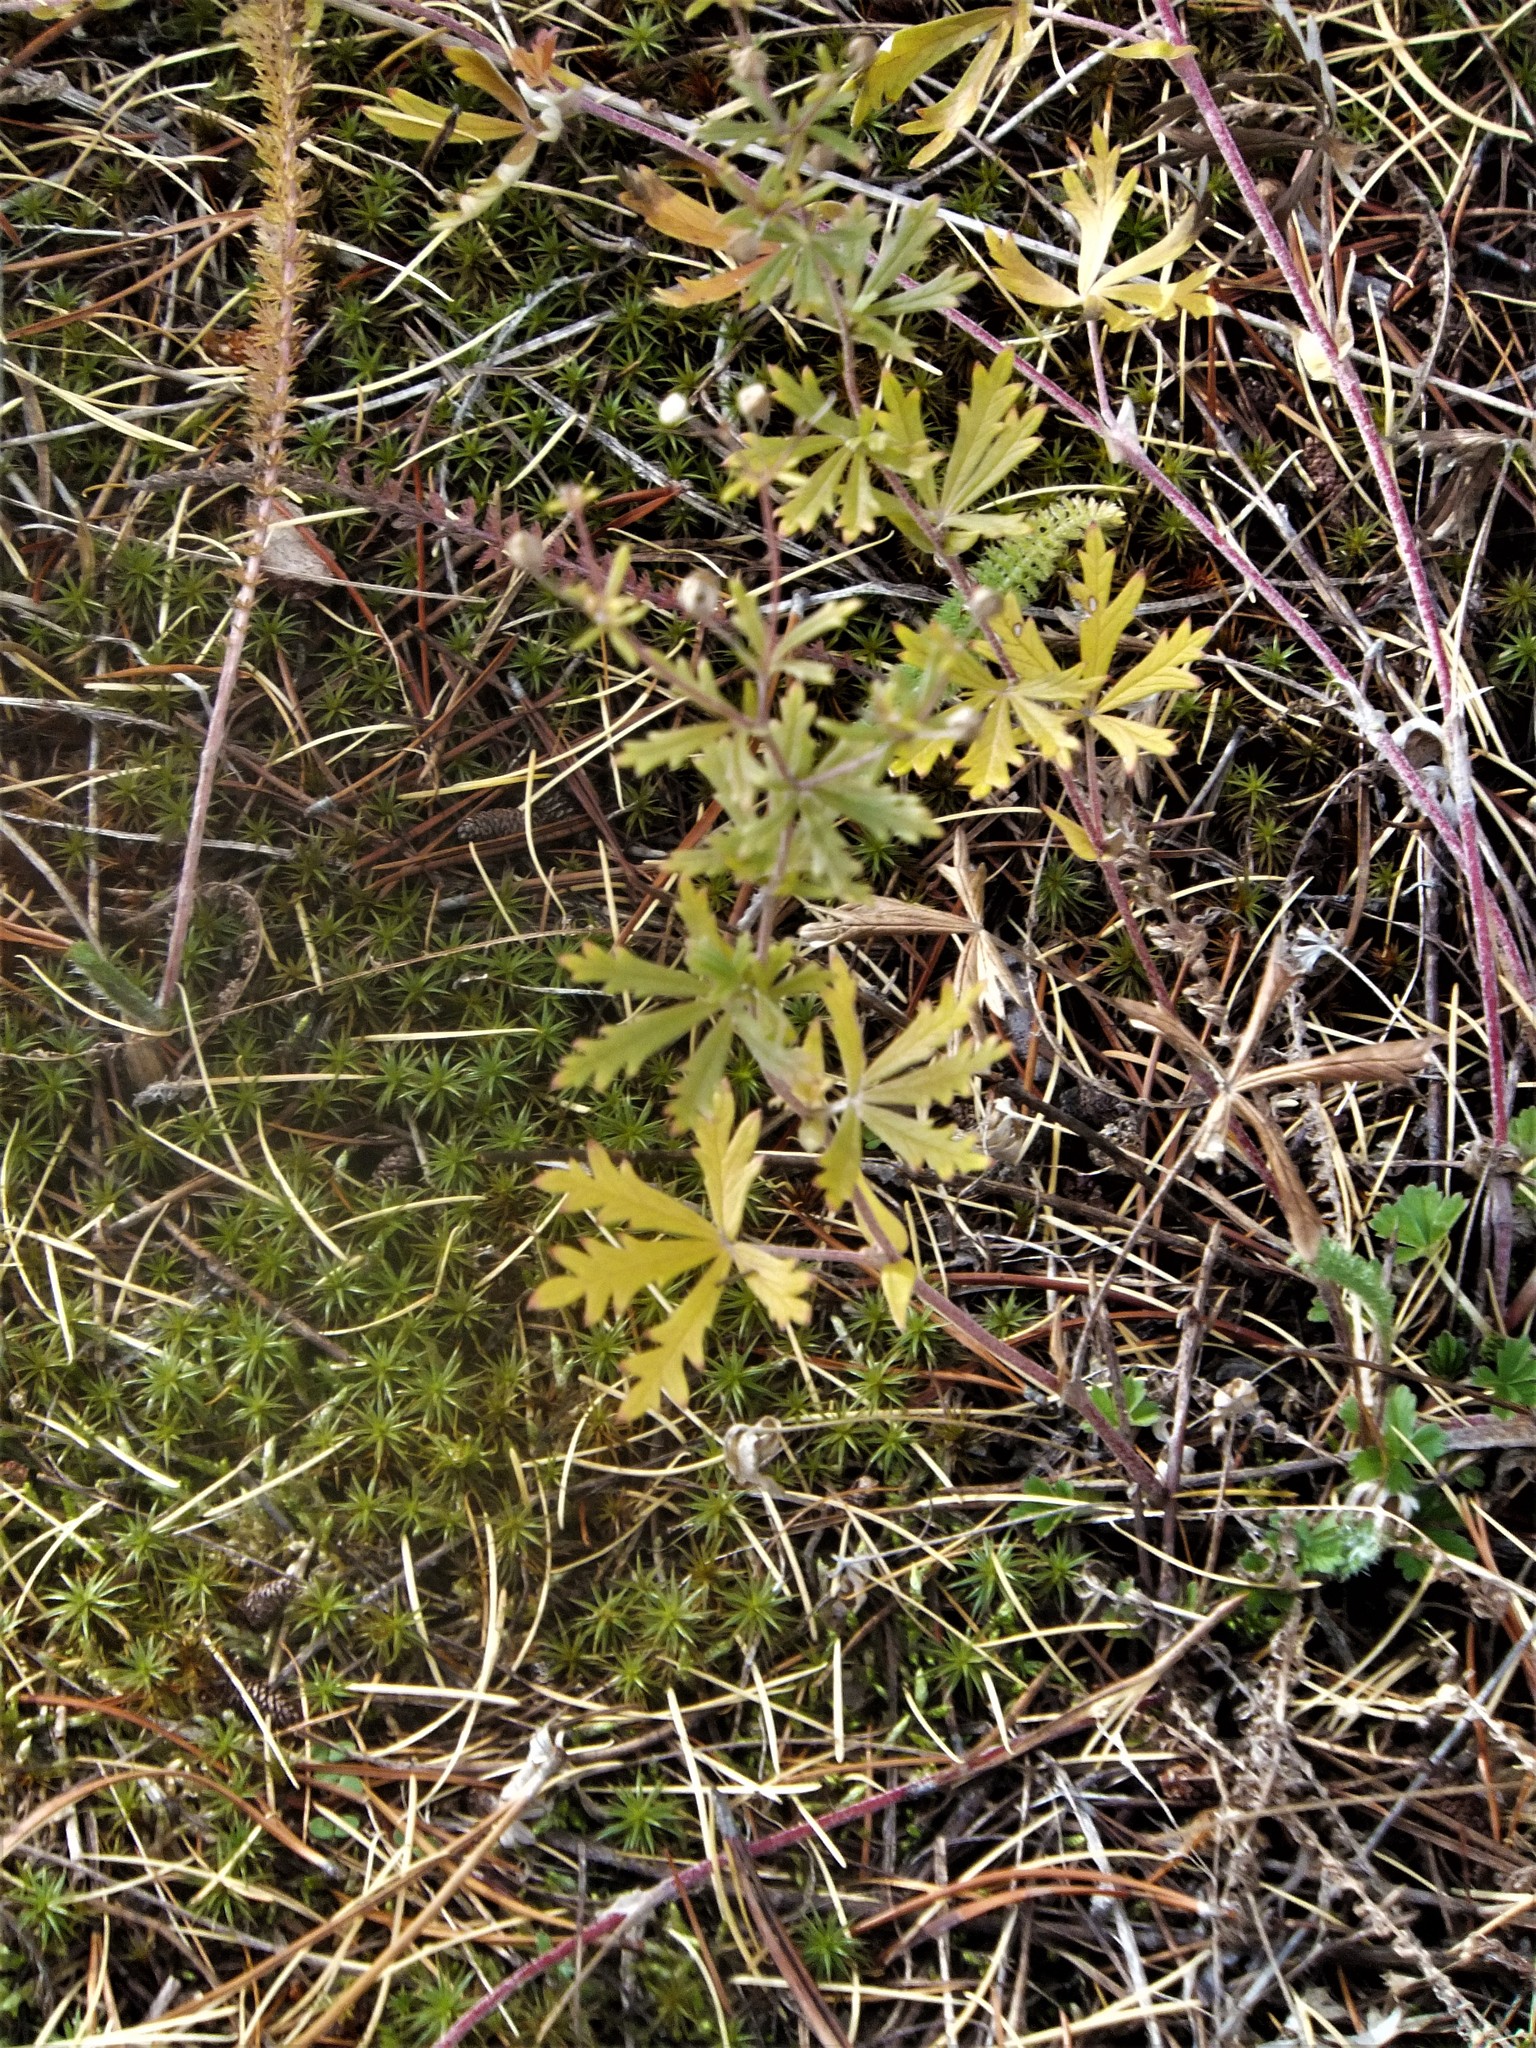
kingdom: Plantae
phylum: Tracheophyta
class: Magnoliopsida
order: Rosales
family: Rosaceae
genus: Potentilla
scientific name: Potentilla argentea
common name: Hoary cinquefoil
